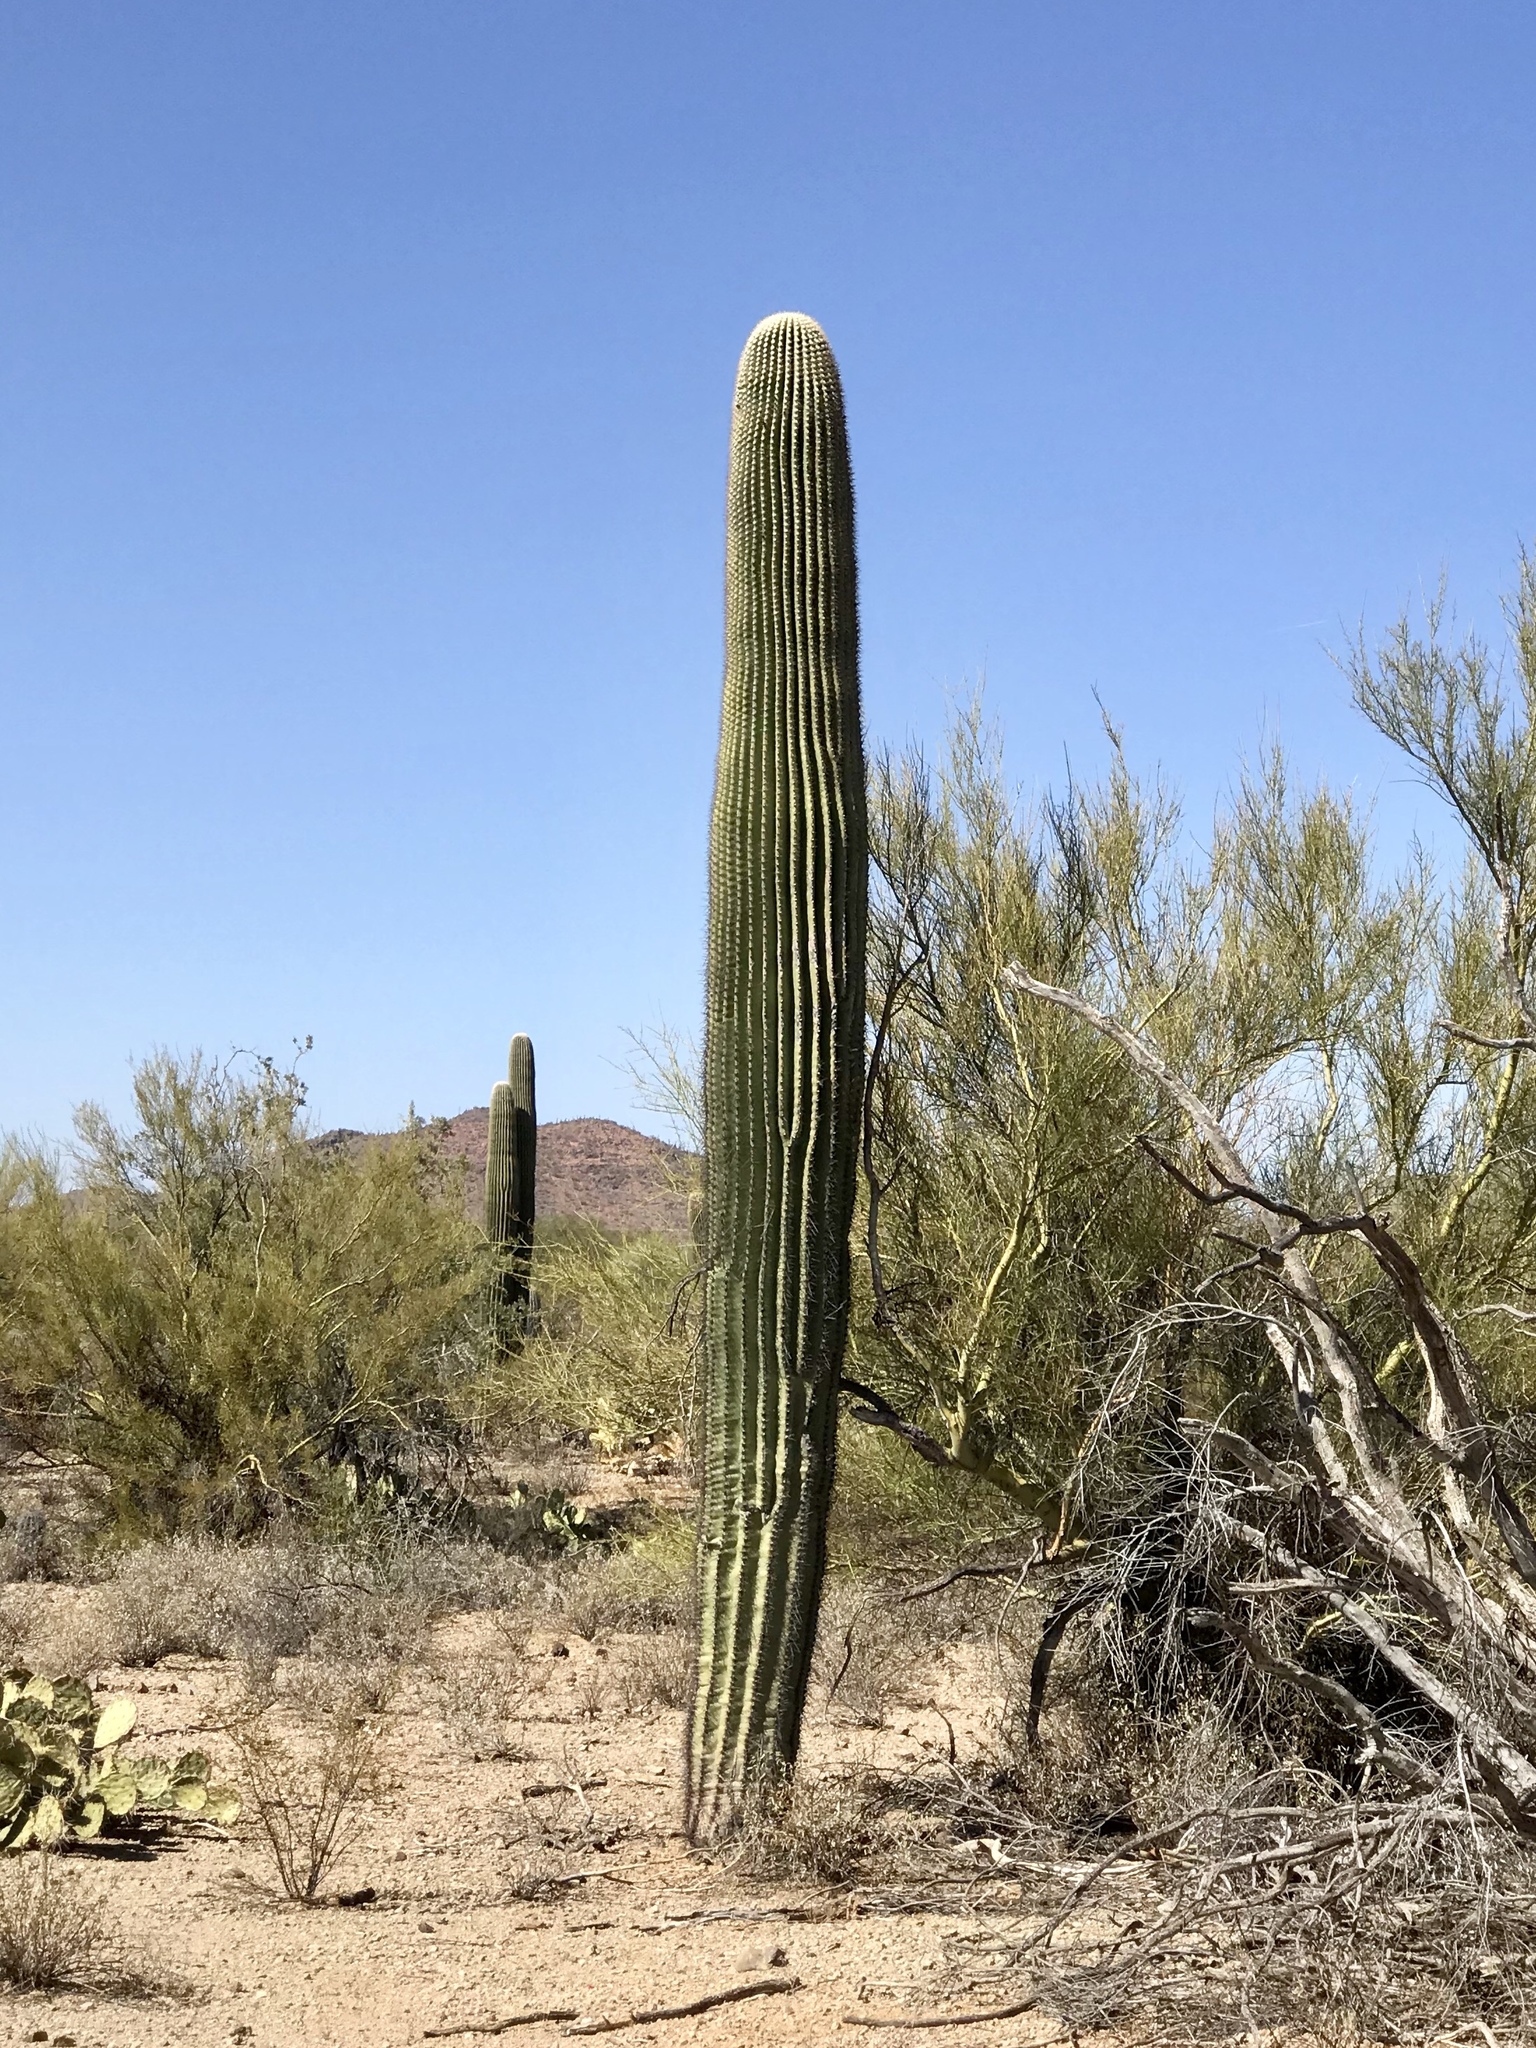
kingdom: Plantae
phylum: Tracheophyta
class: Magnoliopsida
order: Caryophyllales
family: Cactaceae
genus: Carnegiea
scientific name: Carnegiea gigantea
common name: Saguaro
